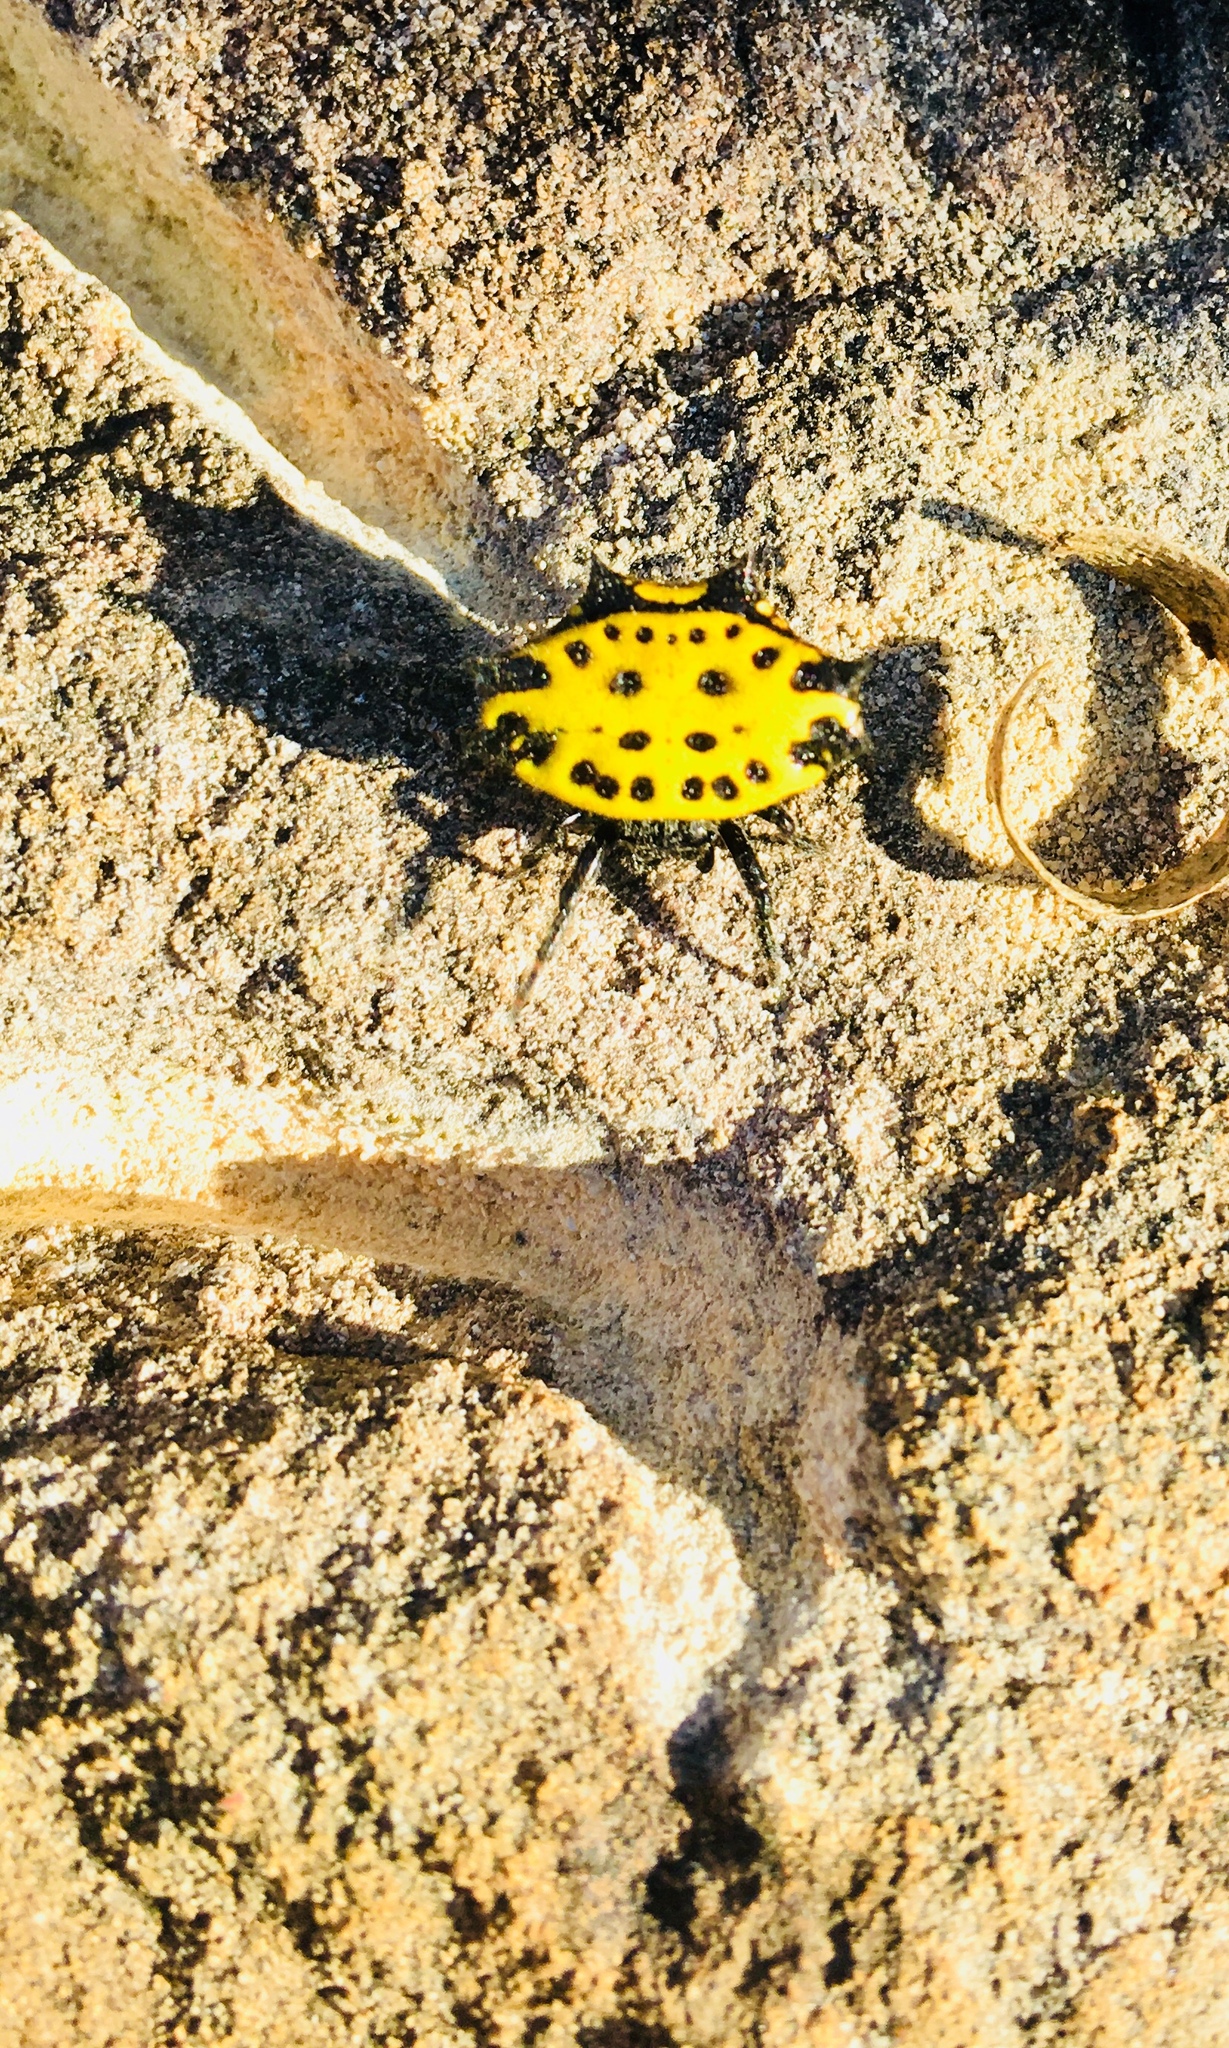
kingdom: Animalia
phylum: Arthropoda
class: Arachnida
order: Araneae
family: Araneidae
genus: Gasteracantha
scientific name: Gasteracantha cancriformis
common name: Orb weavers
